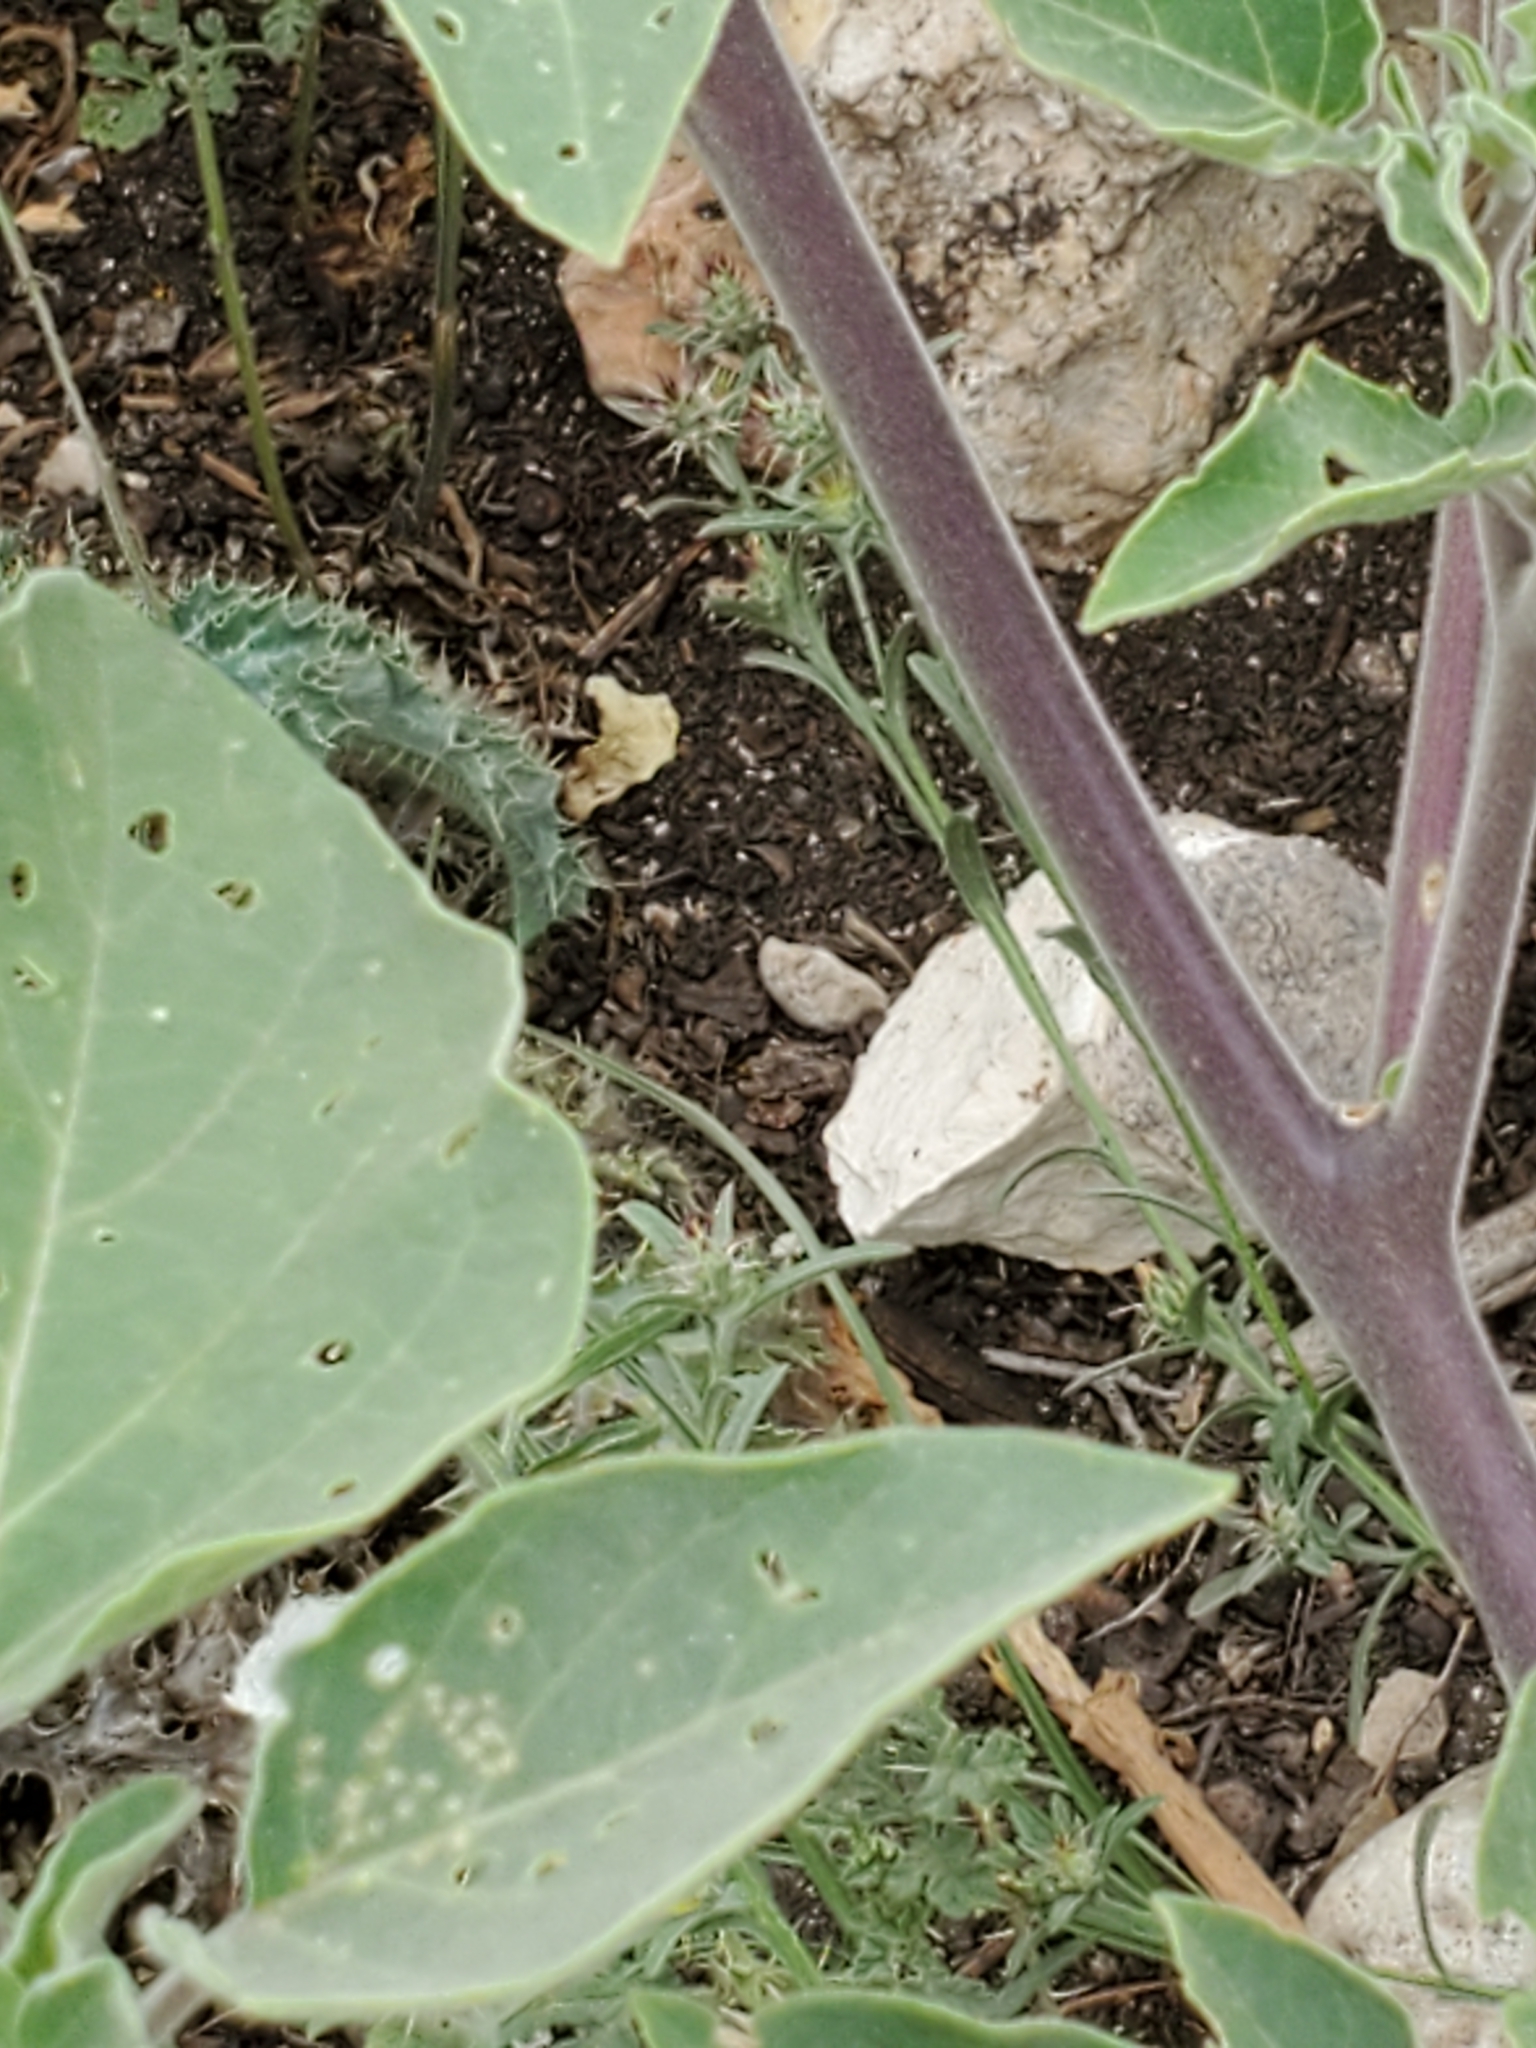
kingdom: Plantae
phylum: Tracheophyta
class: Magnoliopsida
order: Solanales
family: Solanaceae
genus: Datura
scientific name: Datura innoxia
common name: Downy thorn-apple
